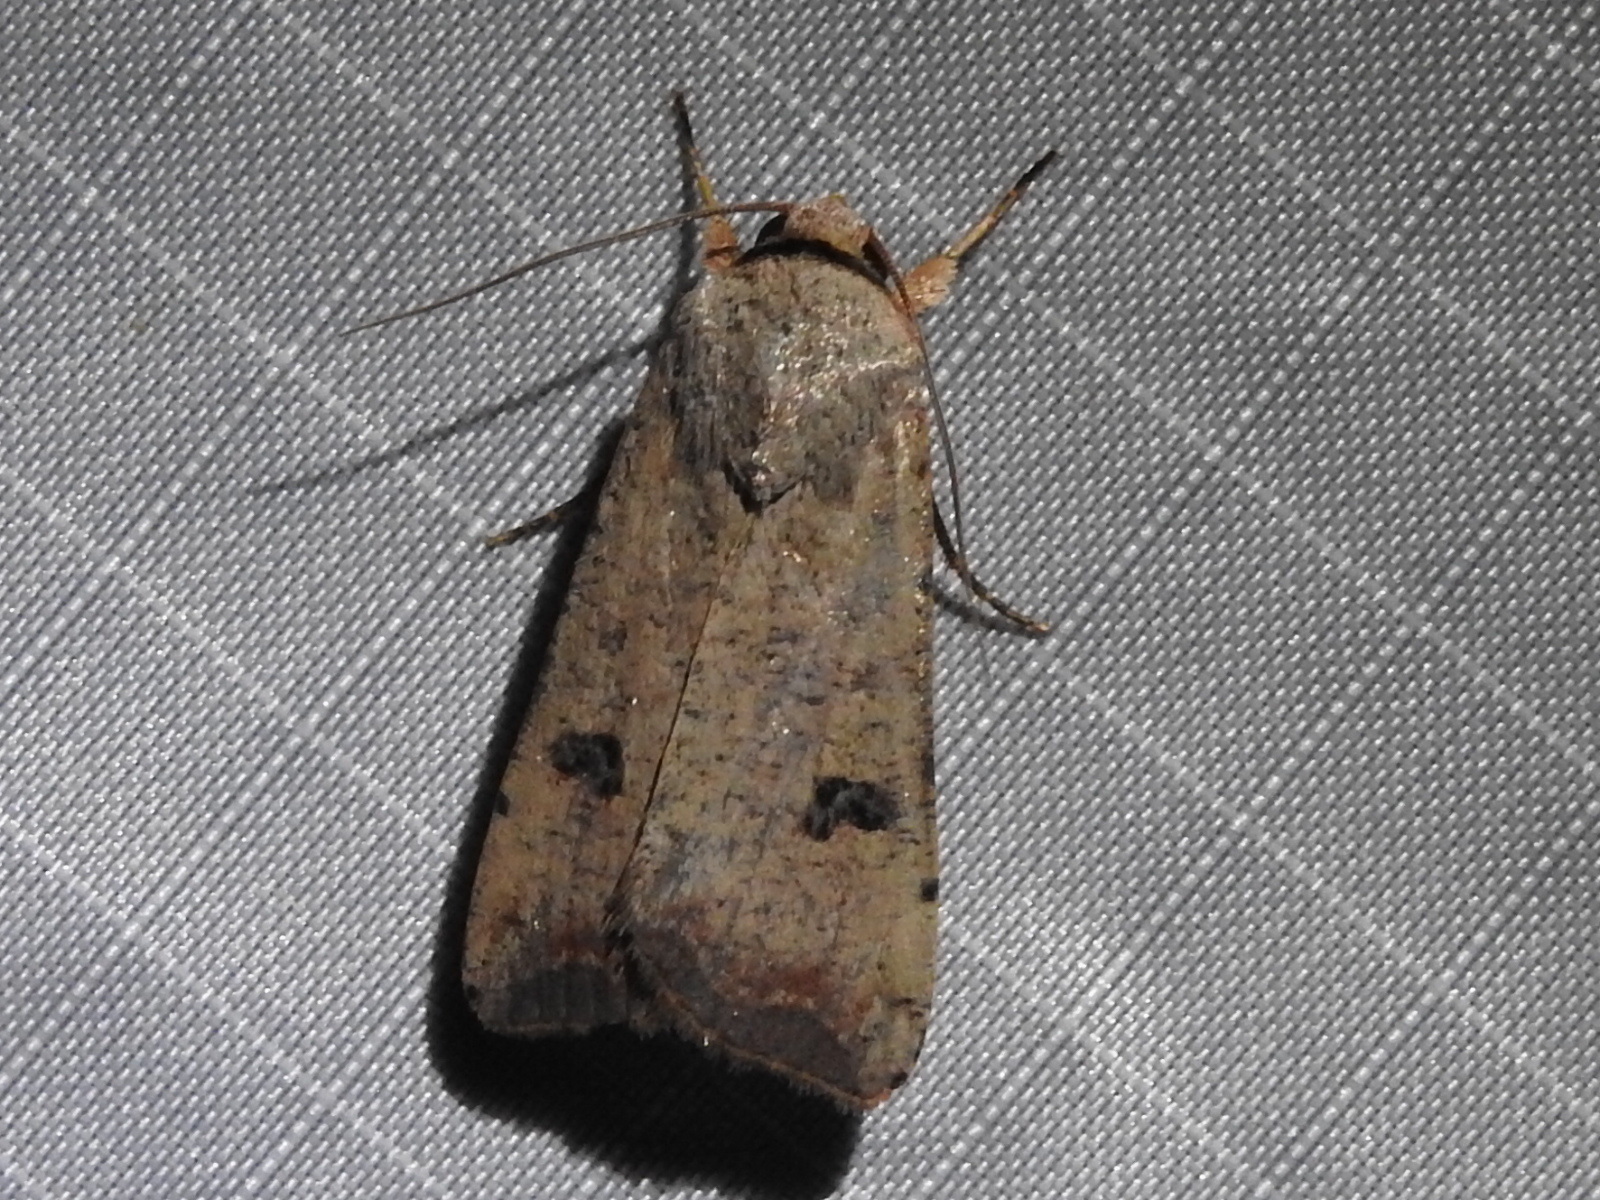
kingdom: Animalia
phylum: Arthropoda
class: Insecta
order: Lepidoptera
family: Noctuidae
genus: Anicla
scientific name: Anicla infecta
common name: Green cutworm
